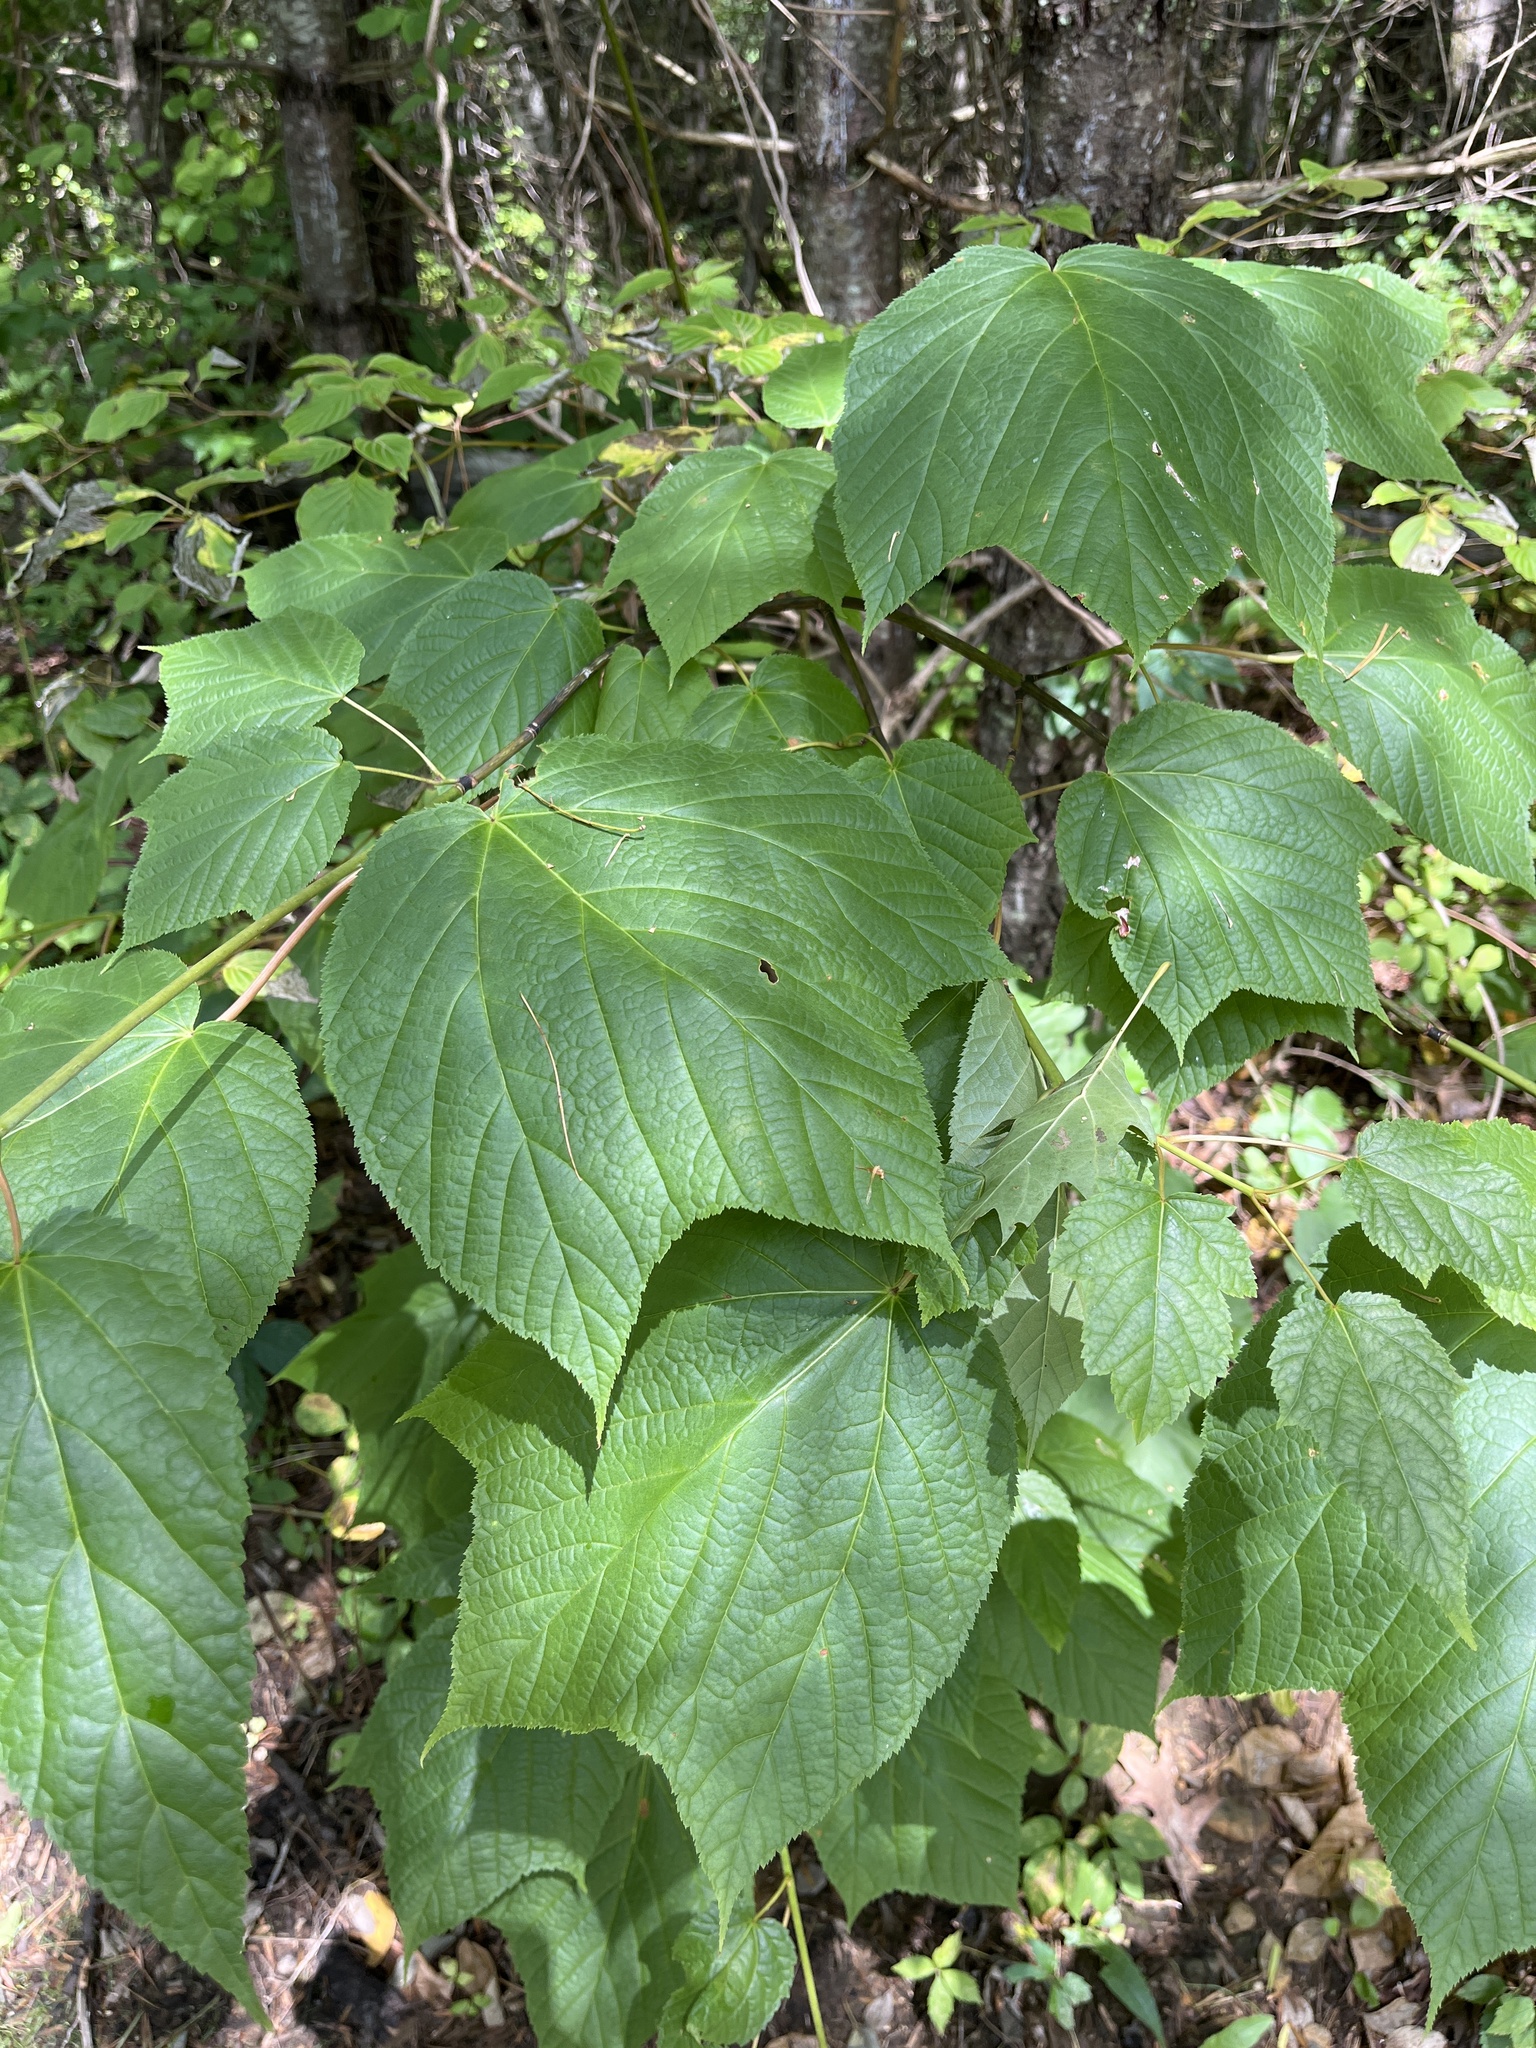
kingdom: Plantae
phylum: Tracheophyta
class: Magnoliopsida
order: Sapindales
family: Sapindaceae
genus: Acer
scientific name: Acer pensylvanicum
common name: Moosewood
